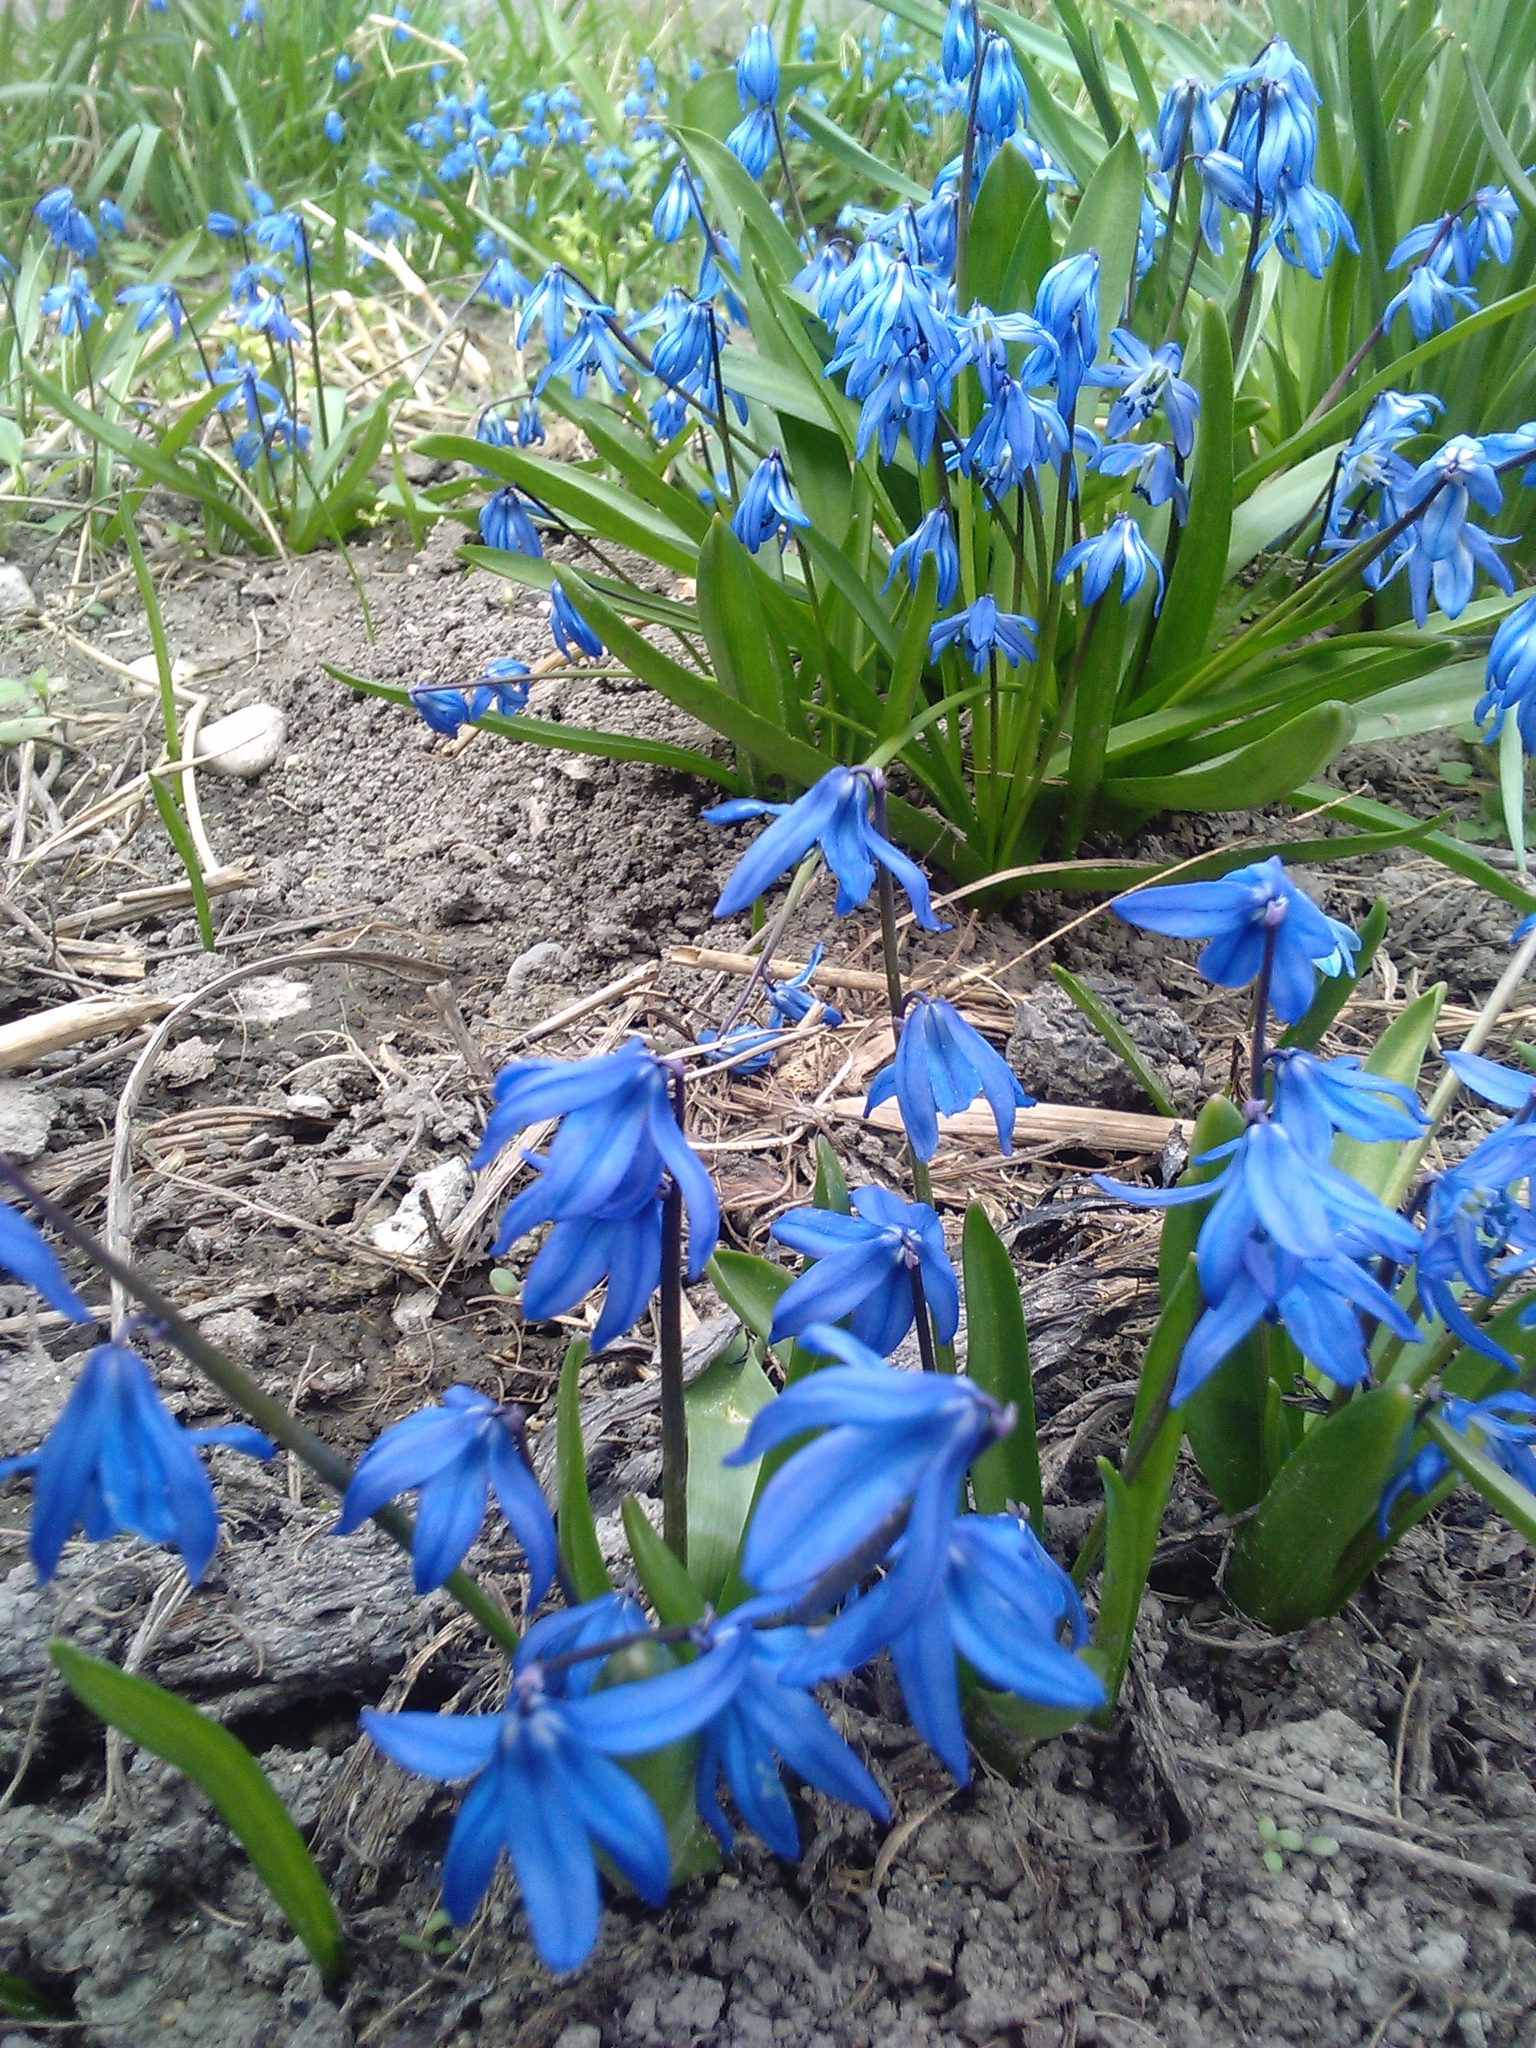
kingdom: Plantae
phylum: Tracheophyta
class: Liliopsida
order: Asparagales
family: Asparagaceae
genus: Scilla
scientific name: Scilla siberica
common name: Siberian squill
